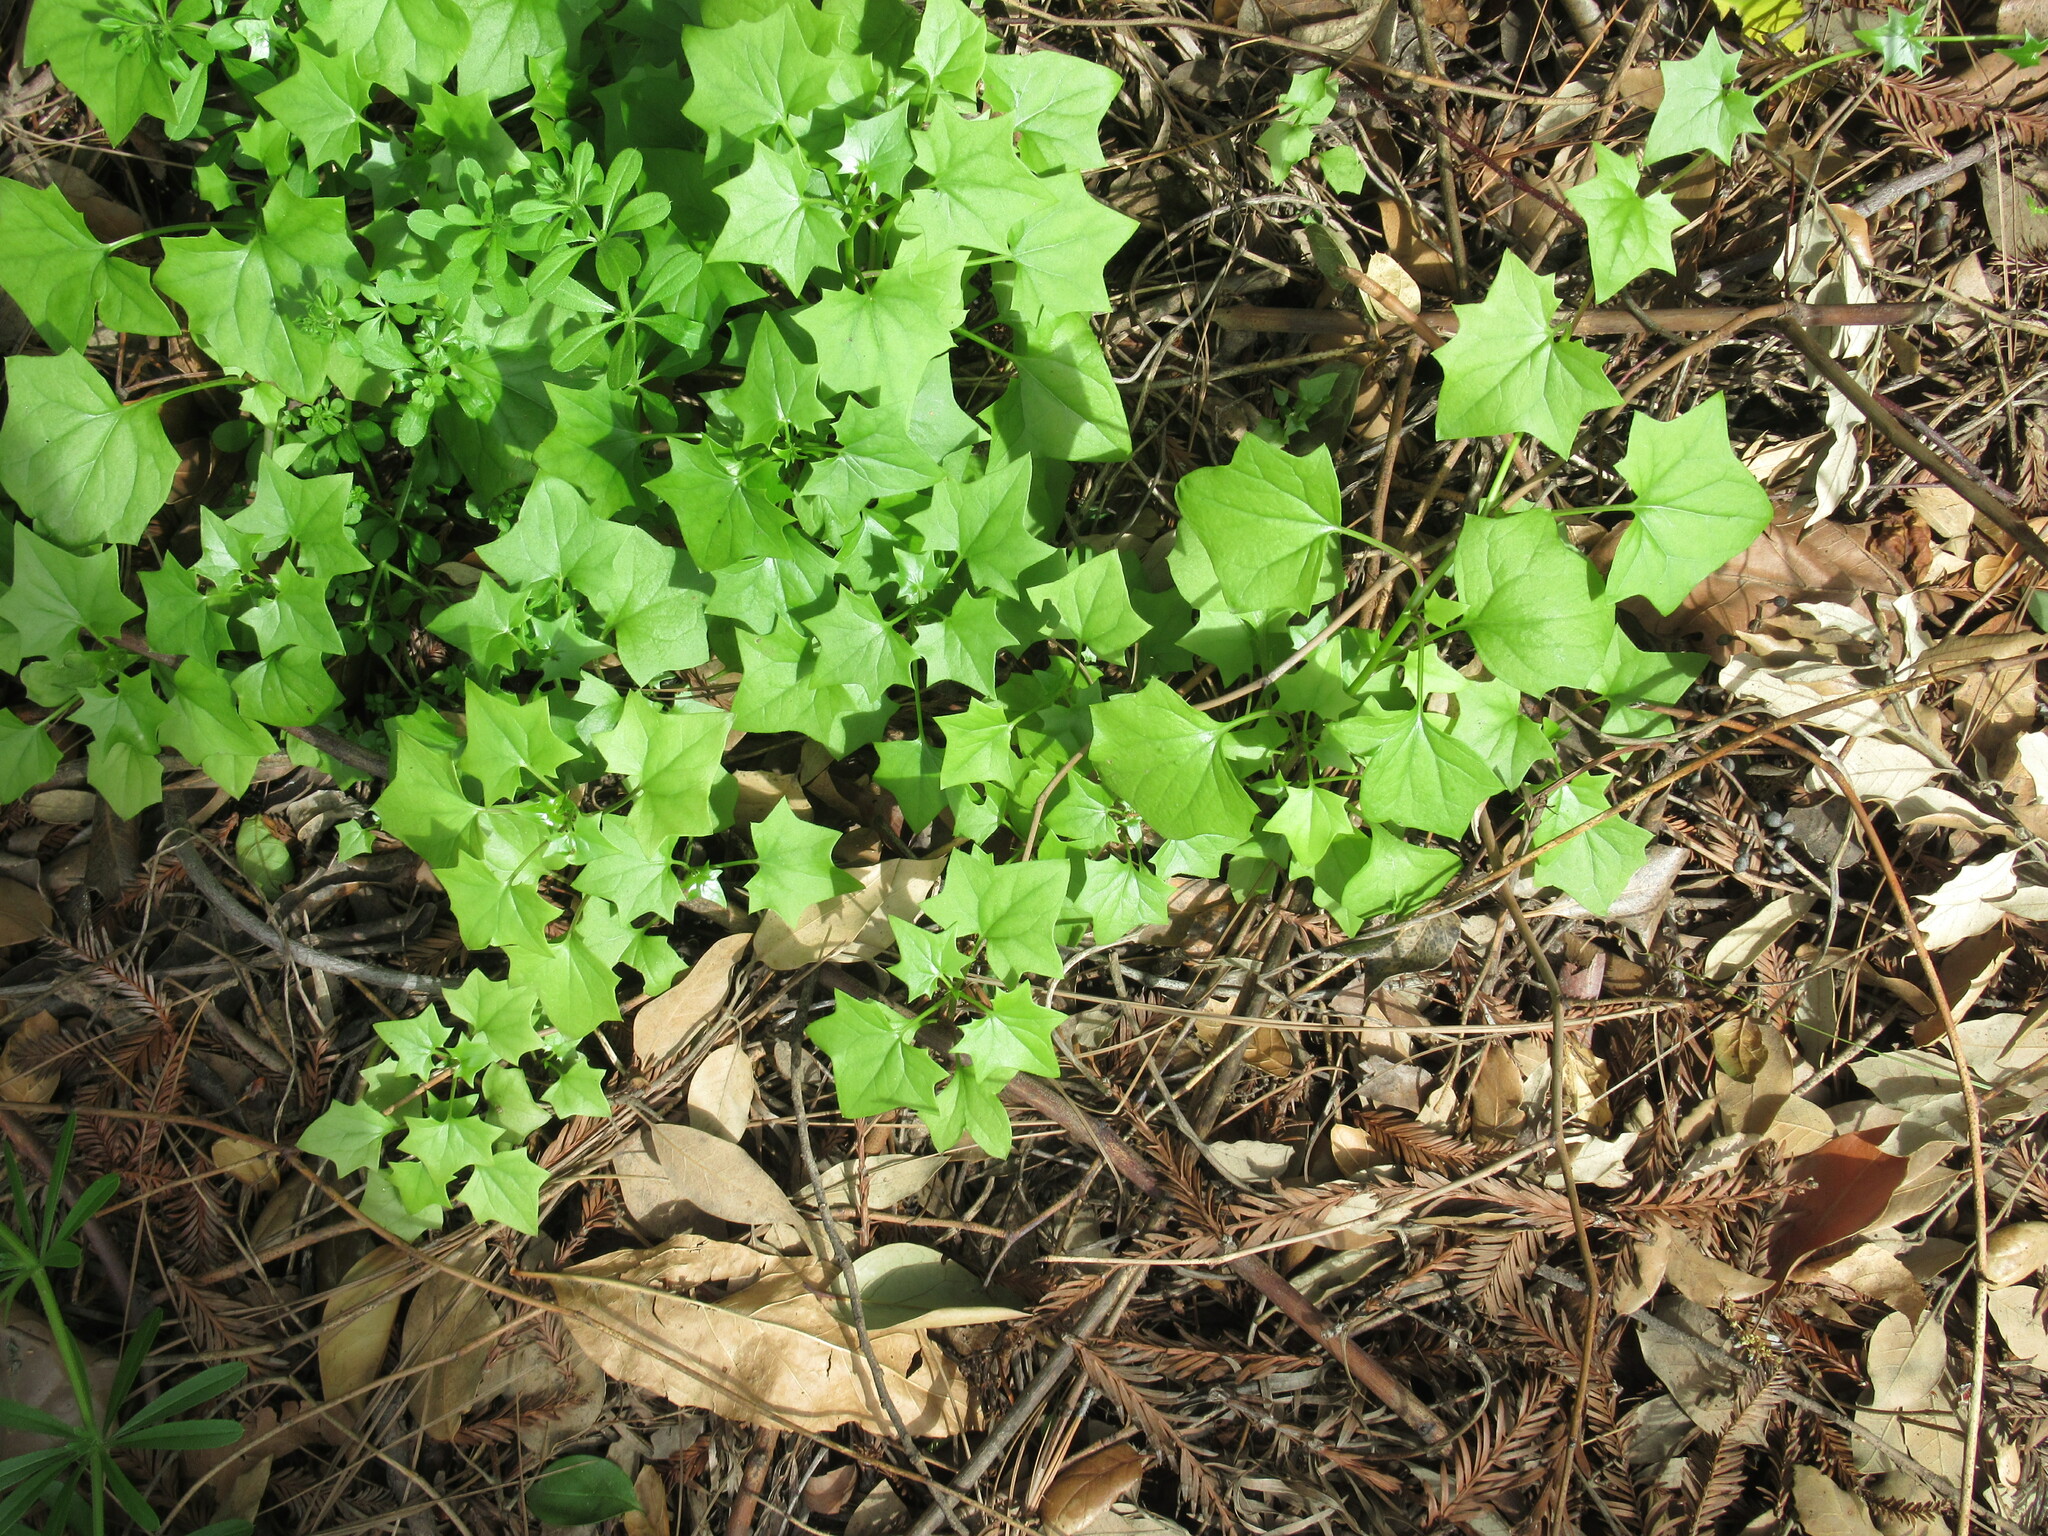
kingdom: Plantae
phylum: Tracheophyta
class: Magnoliopsida
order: Asterales
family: Asteraceae
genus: Delairea
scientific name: Delairea odorata
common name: Cape-ivy
